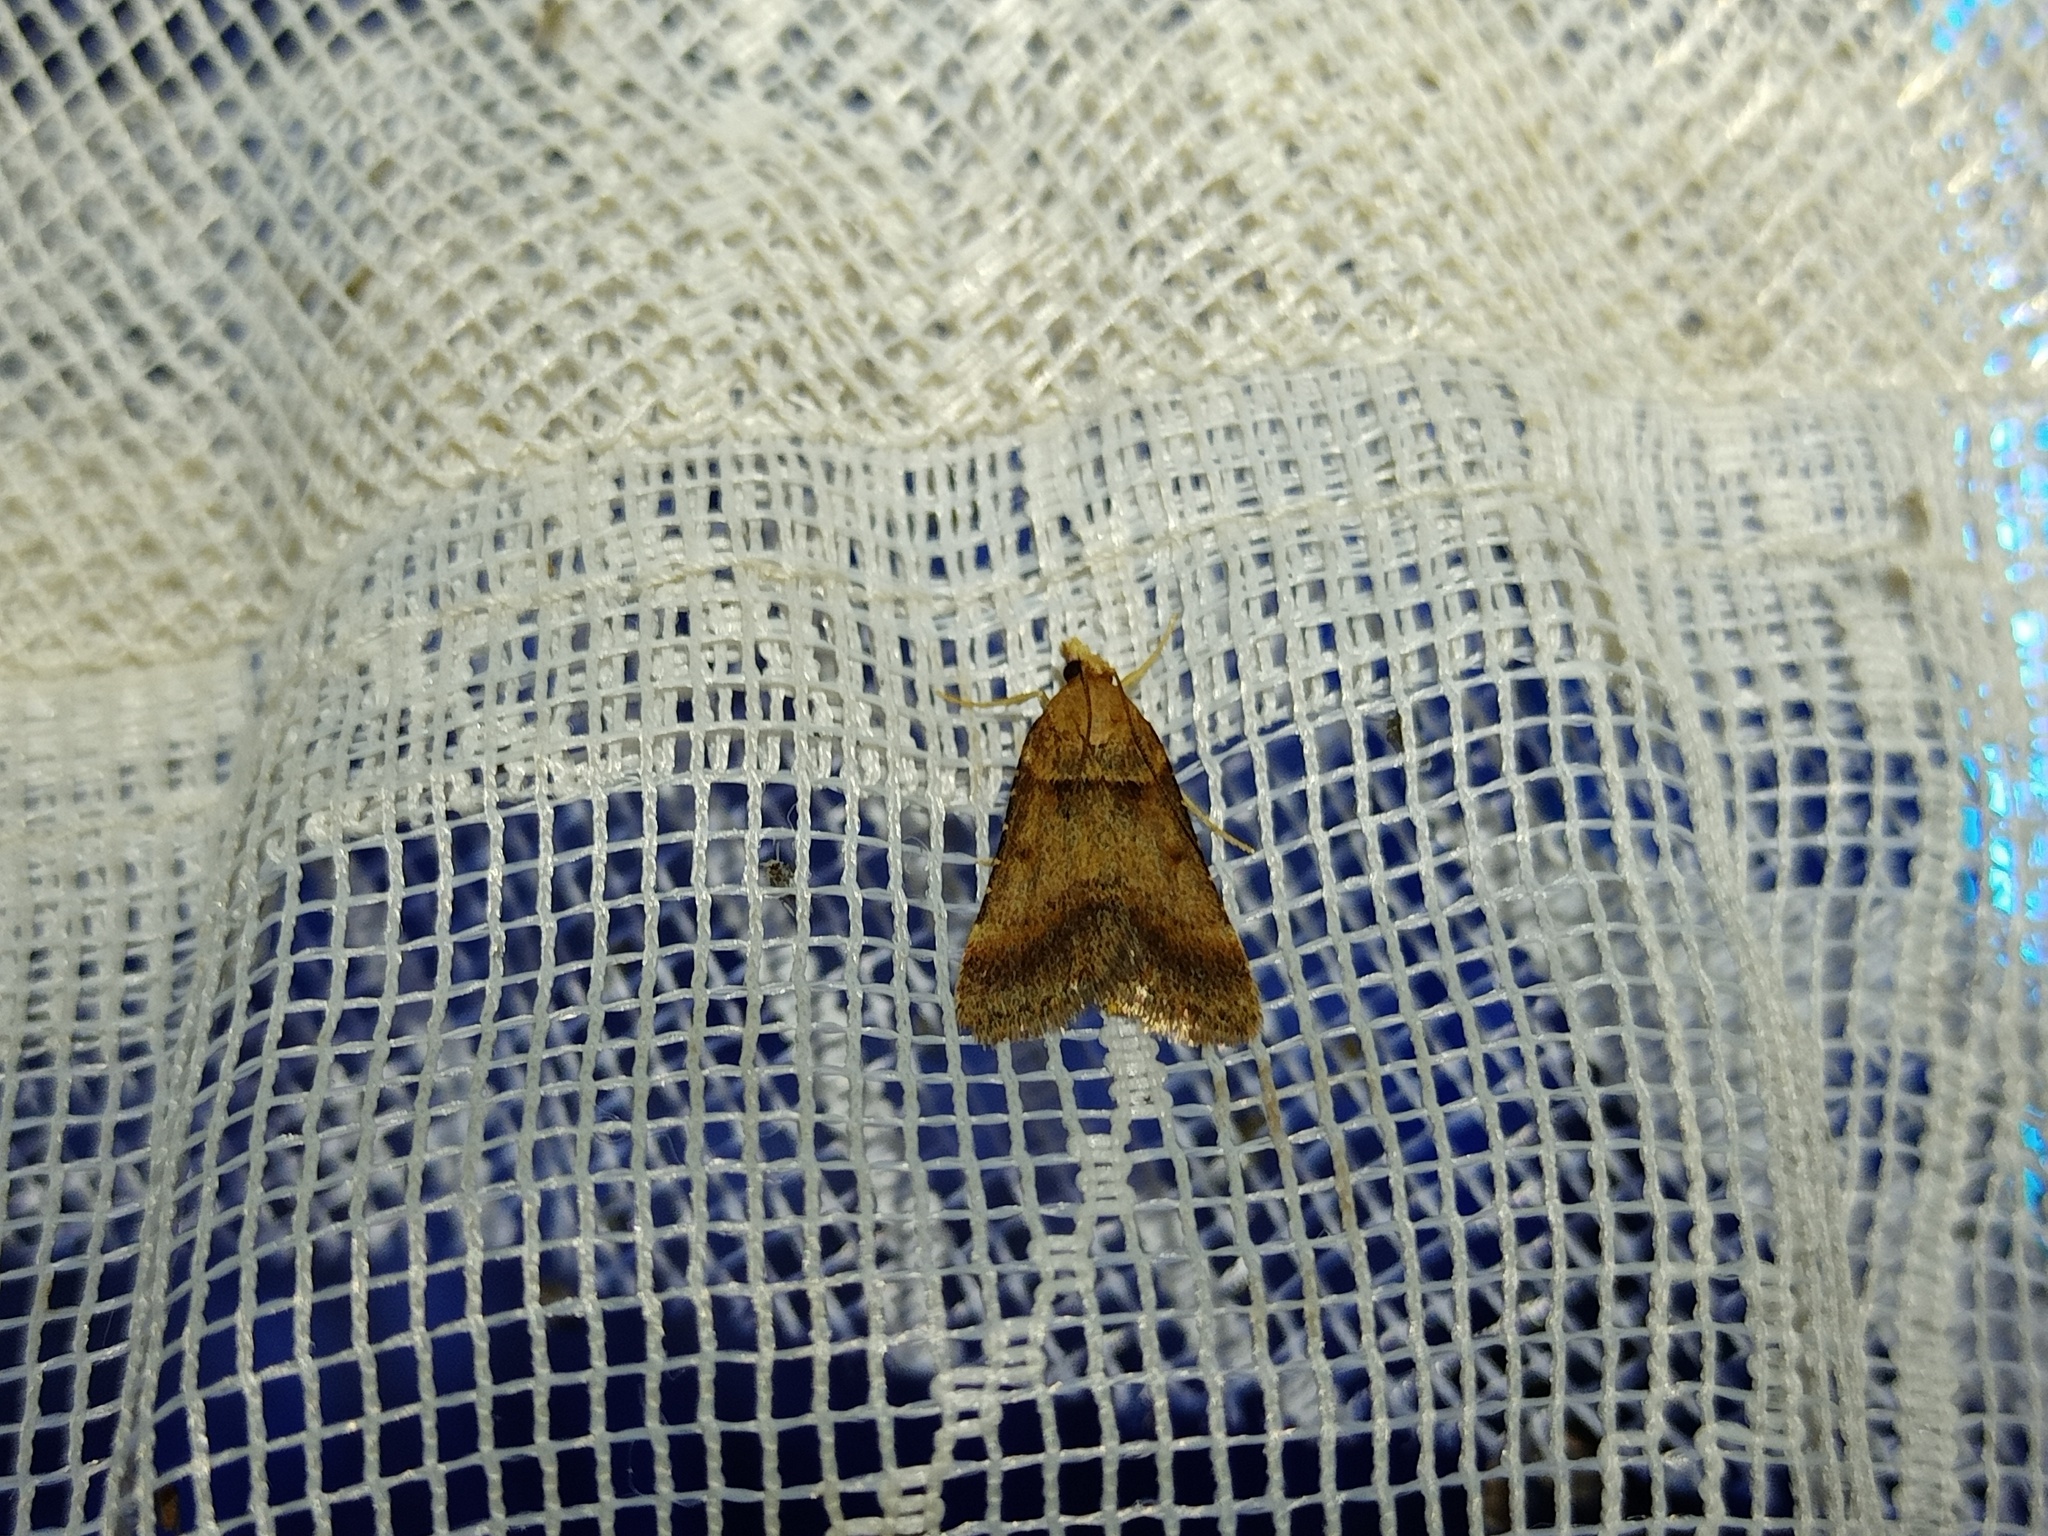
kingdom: Animalia
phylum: Arthropoda
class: Insecta
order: Lepidoptera
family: Pyralidae
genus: Stemmatophora
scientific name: Stemmatophora brunnealis
